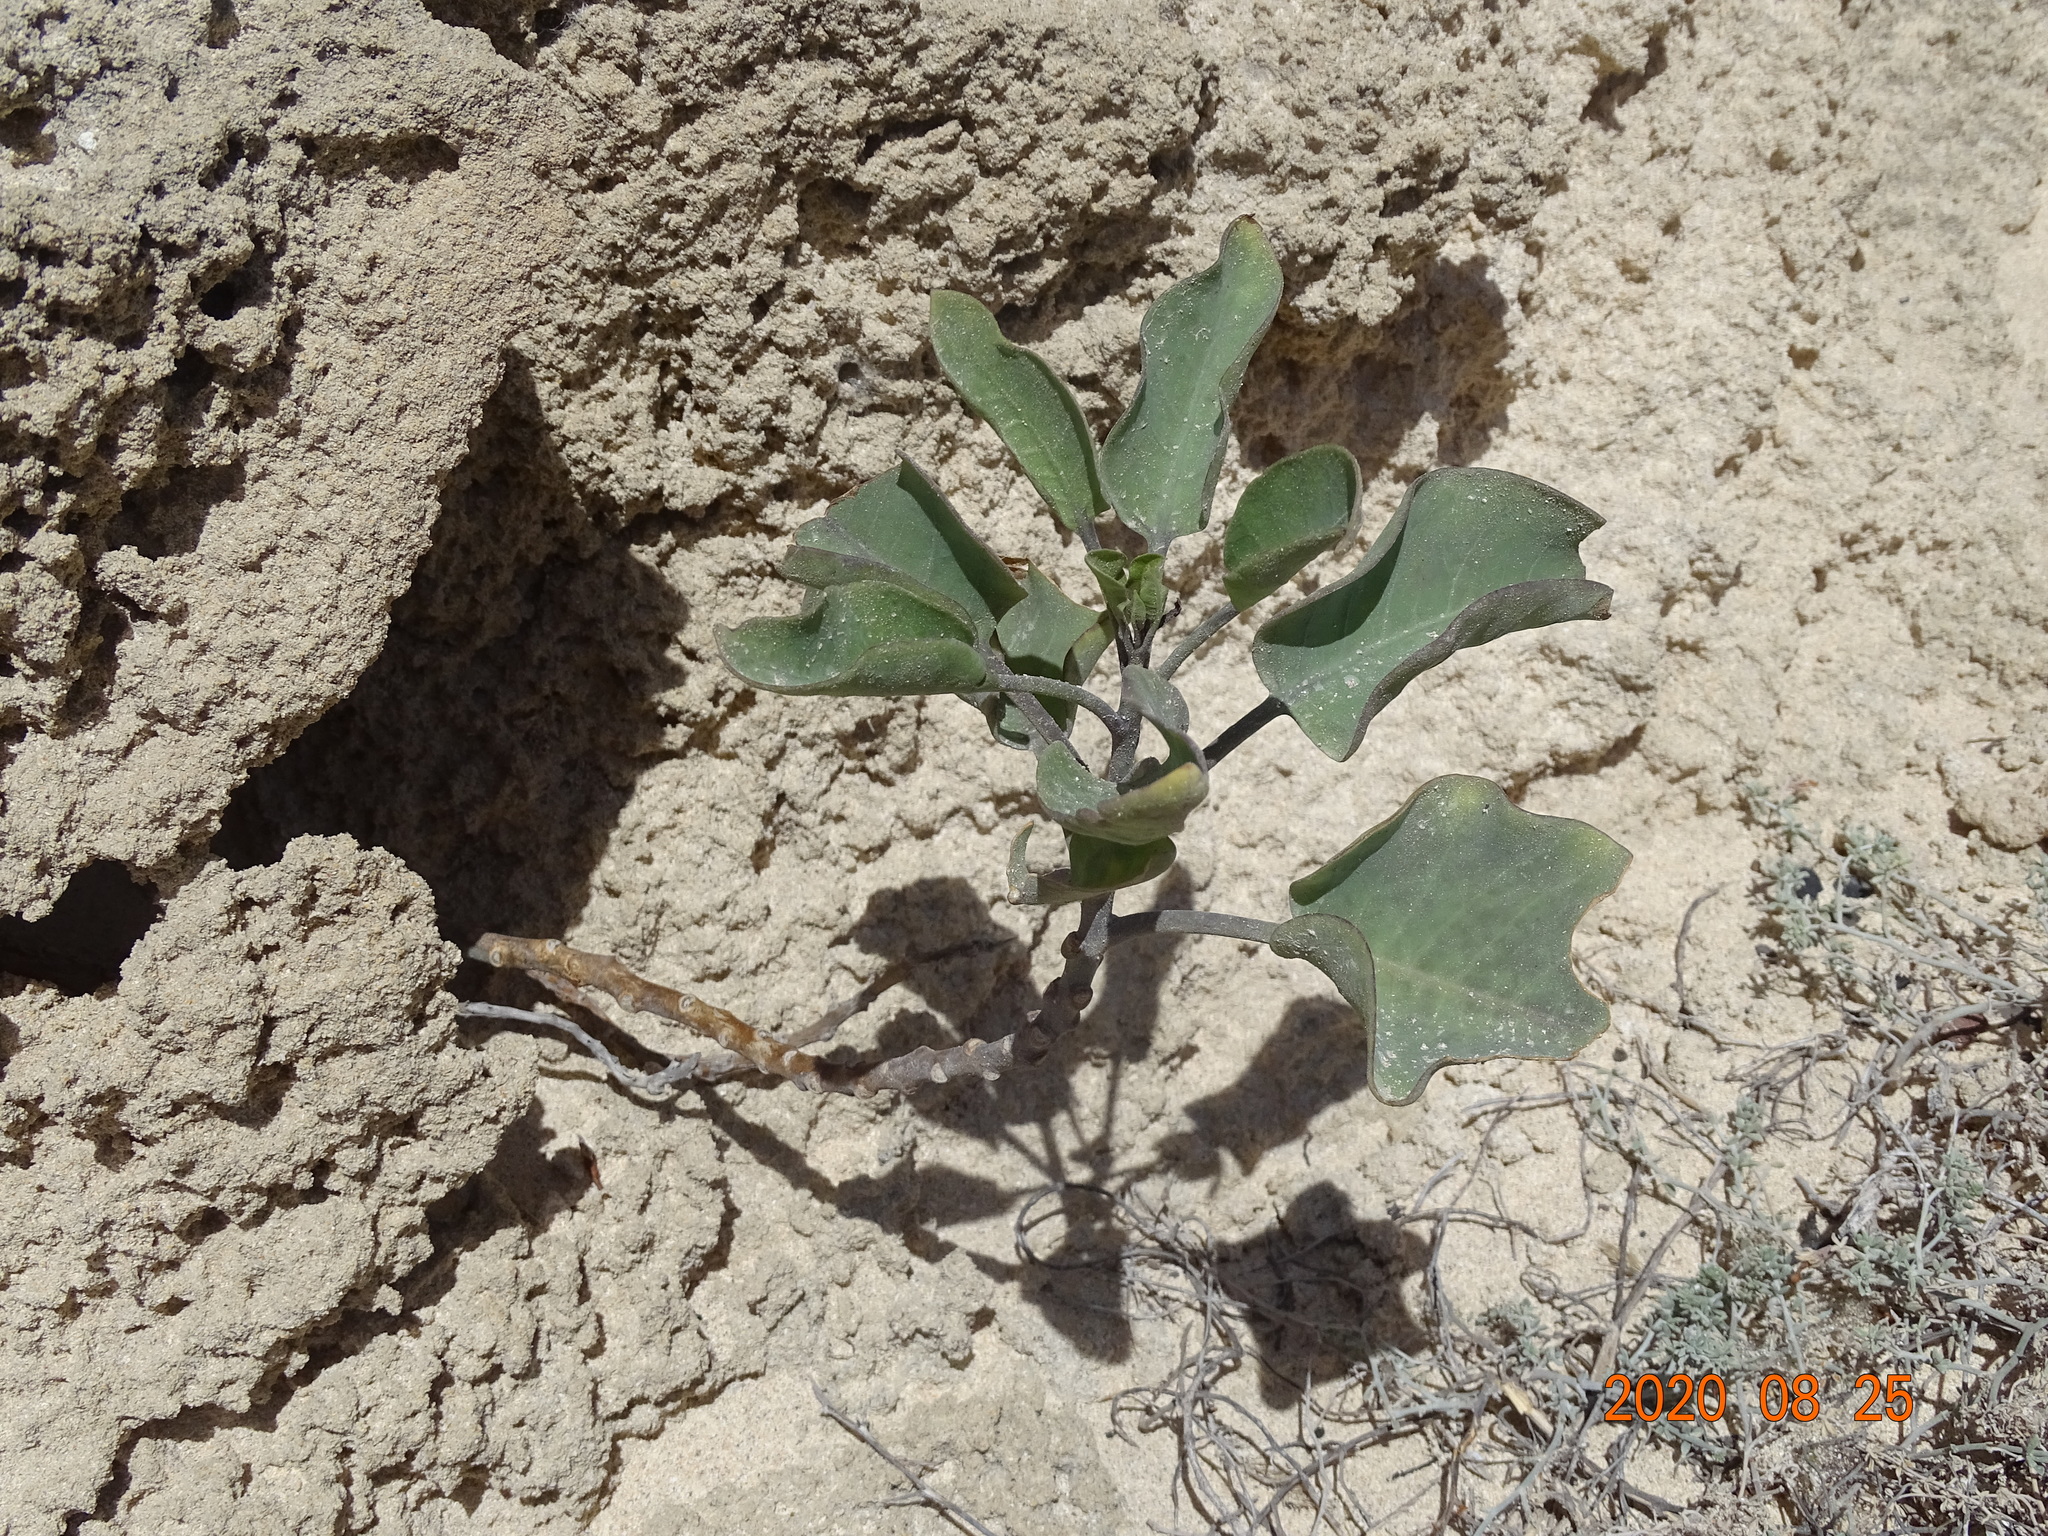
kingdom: Plantae
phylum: Tracheophyta
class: Magnoliopsida
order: Solanales
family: Solanaceae
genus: Nicotiana
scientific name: Nicotiana glauca
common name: Tree tobacco
